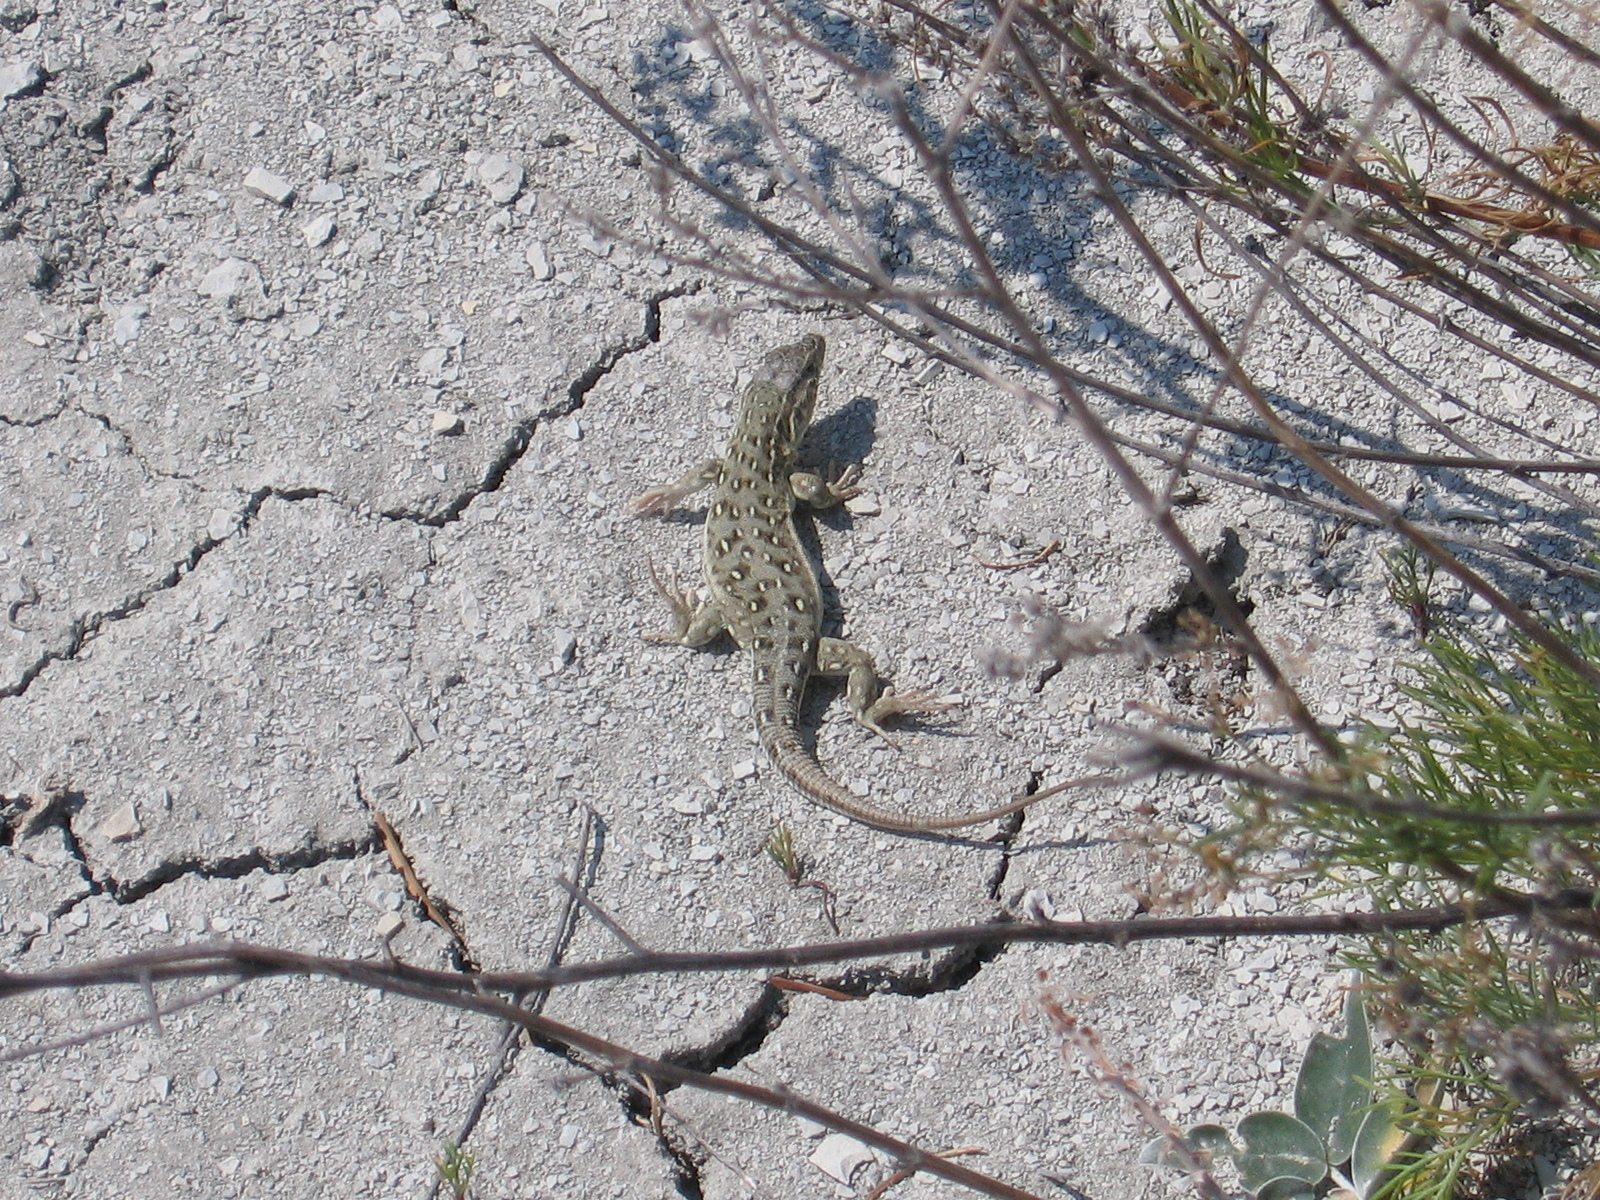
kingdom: Animalia
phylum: Chordata
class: Squamata
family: Lacertidae
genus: Eremias
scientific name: Eremias arguta
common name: Racerunner
